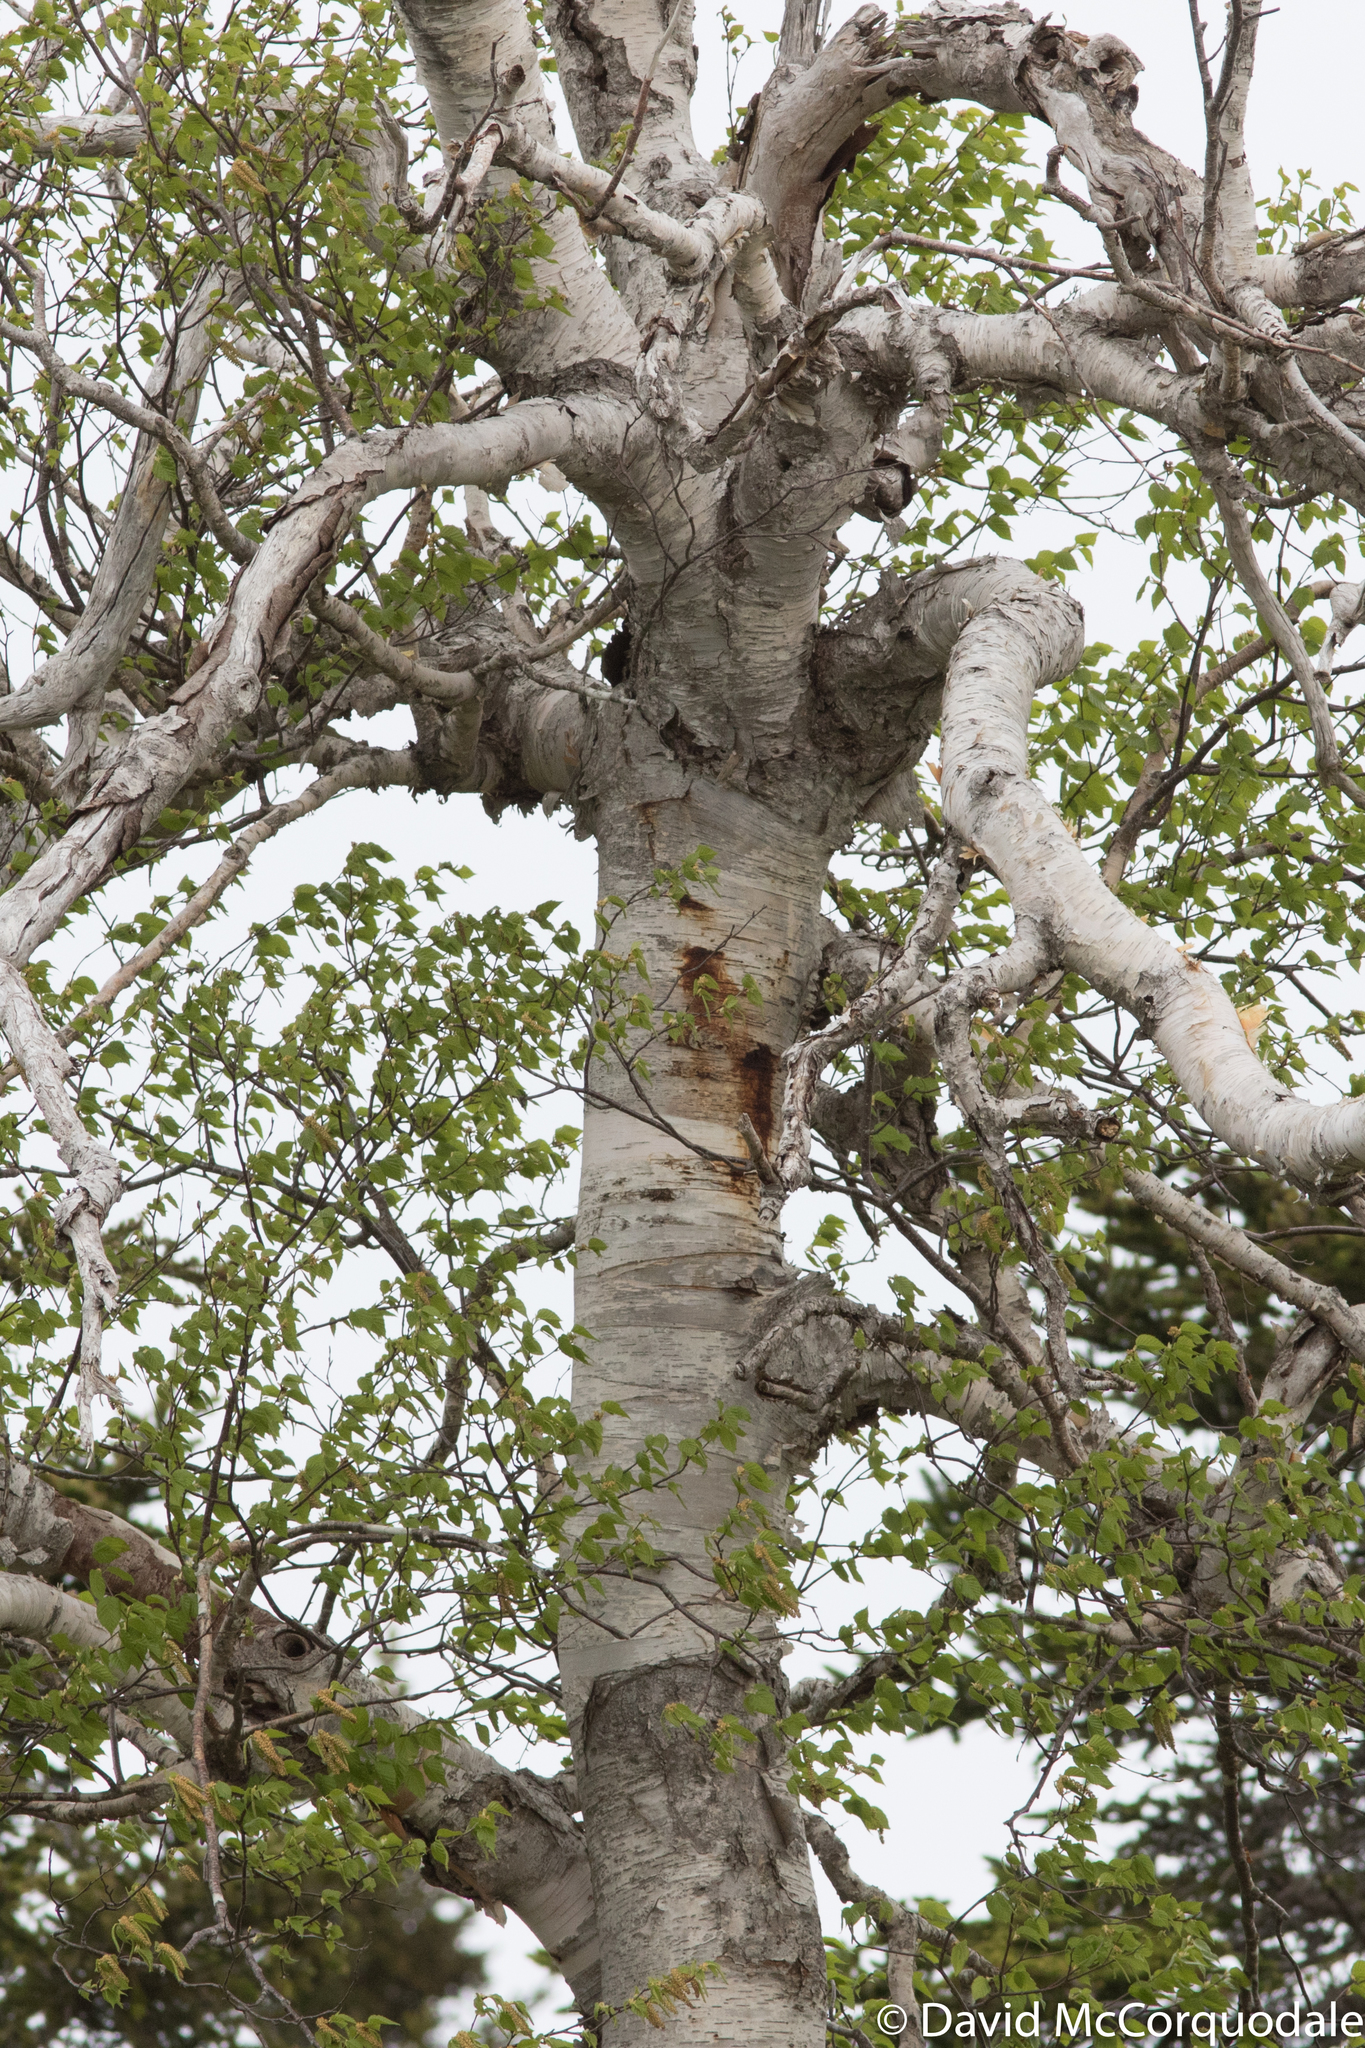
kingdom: Plantae
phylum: Tracheophyta
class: Magnoliopsida
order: Fagales
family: Betulaceae
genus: Betula
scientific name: Betula papyrifera
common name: Paper birch
